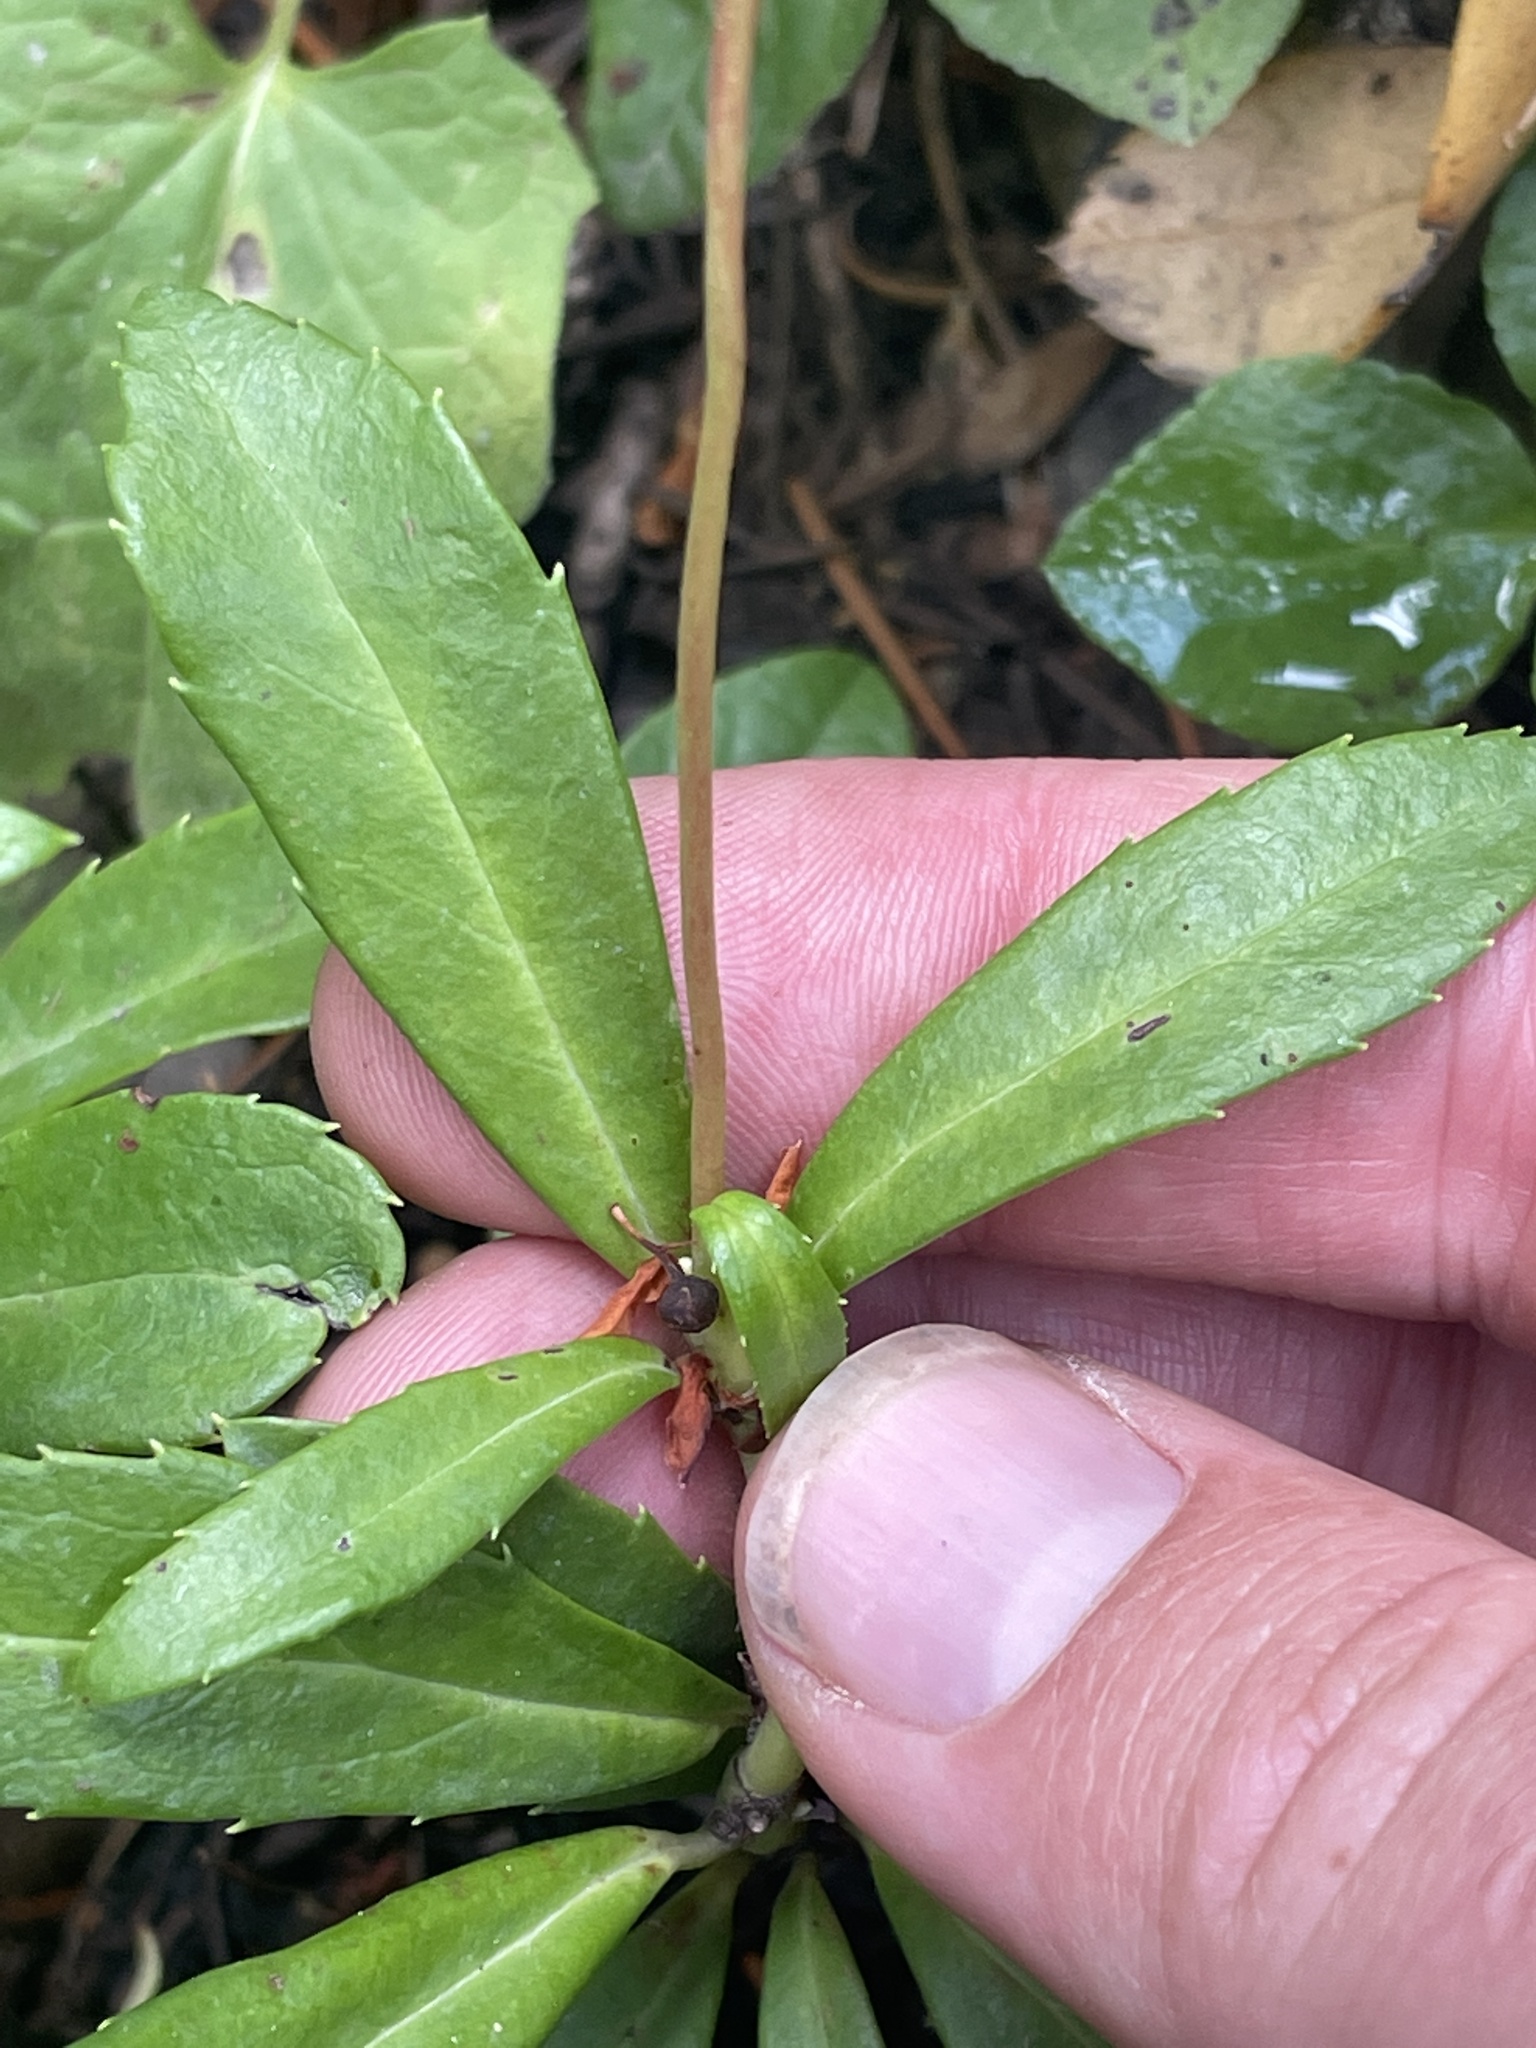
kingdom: Plantae
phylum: Tracheophyta
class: Magnoliopsida
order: Ericales
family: Ericaceae
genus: Chimaphila
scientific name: Chimaphila umbellata
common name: Pipsissewa
